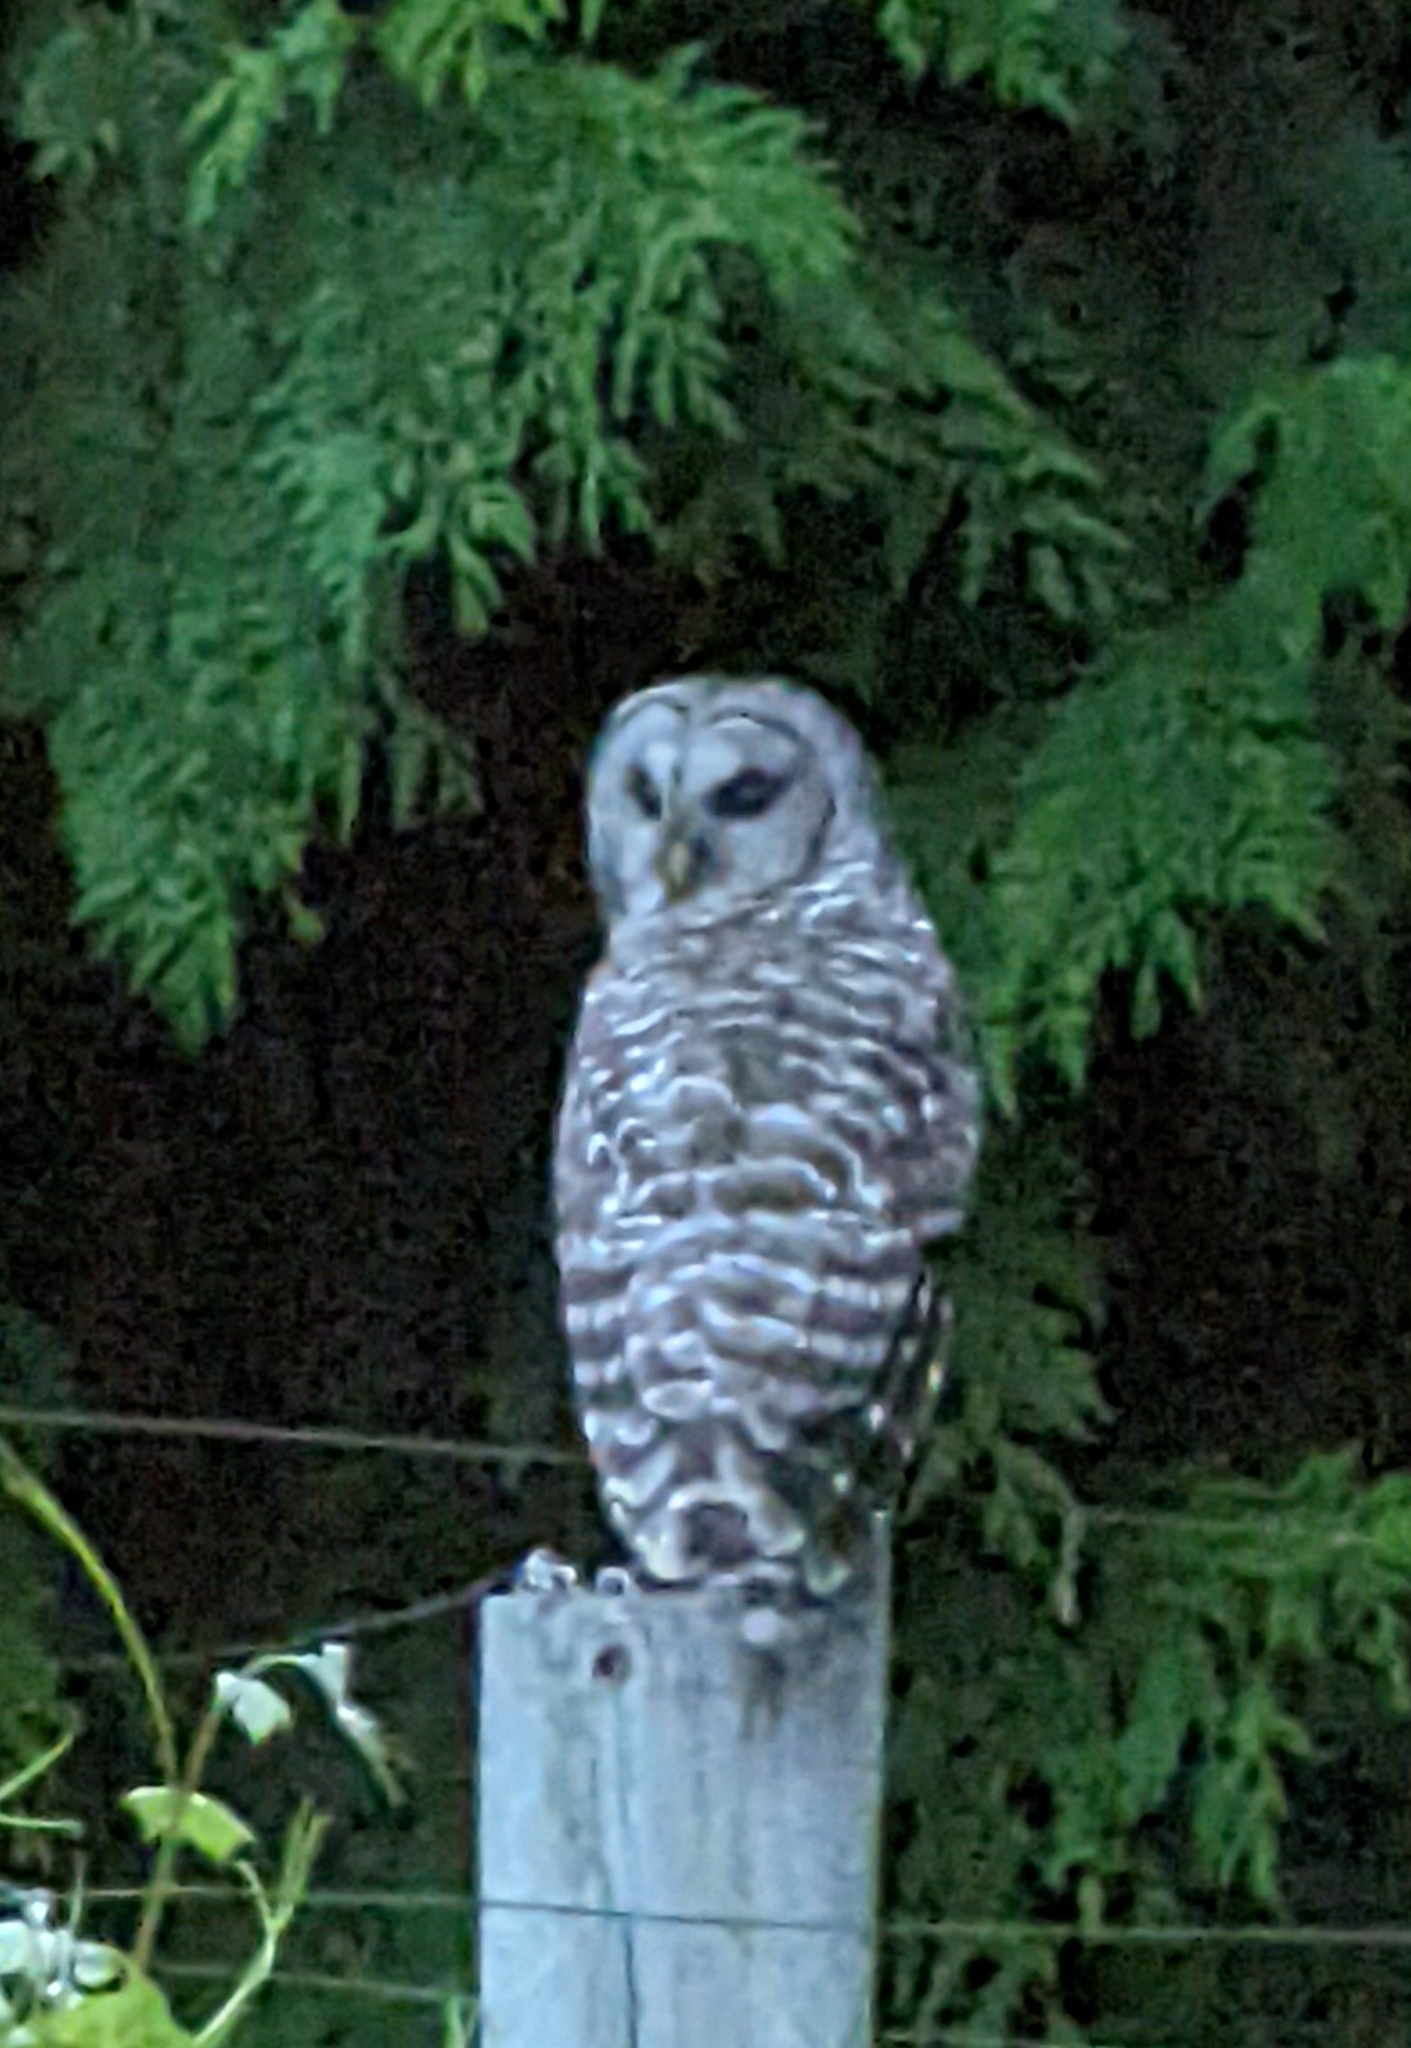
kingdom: Animalia
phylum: Chordata
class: Aves
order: Strigiformes
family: Strigidae
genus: Strix
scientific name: Strix varia
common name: Barred owl
